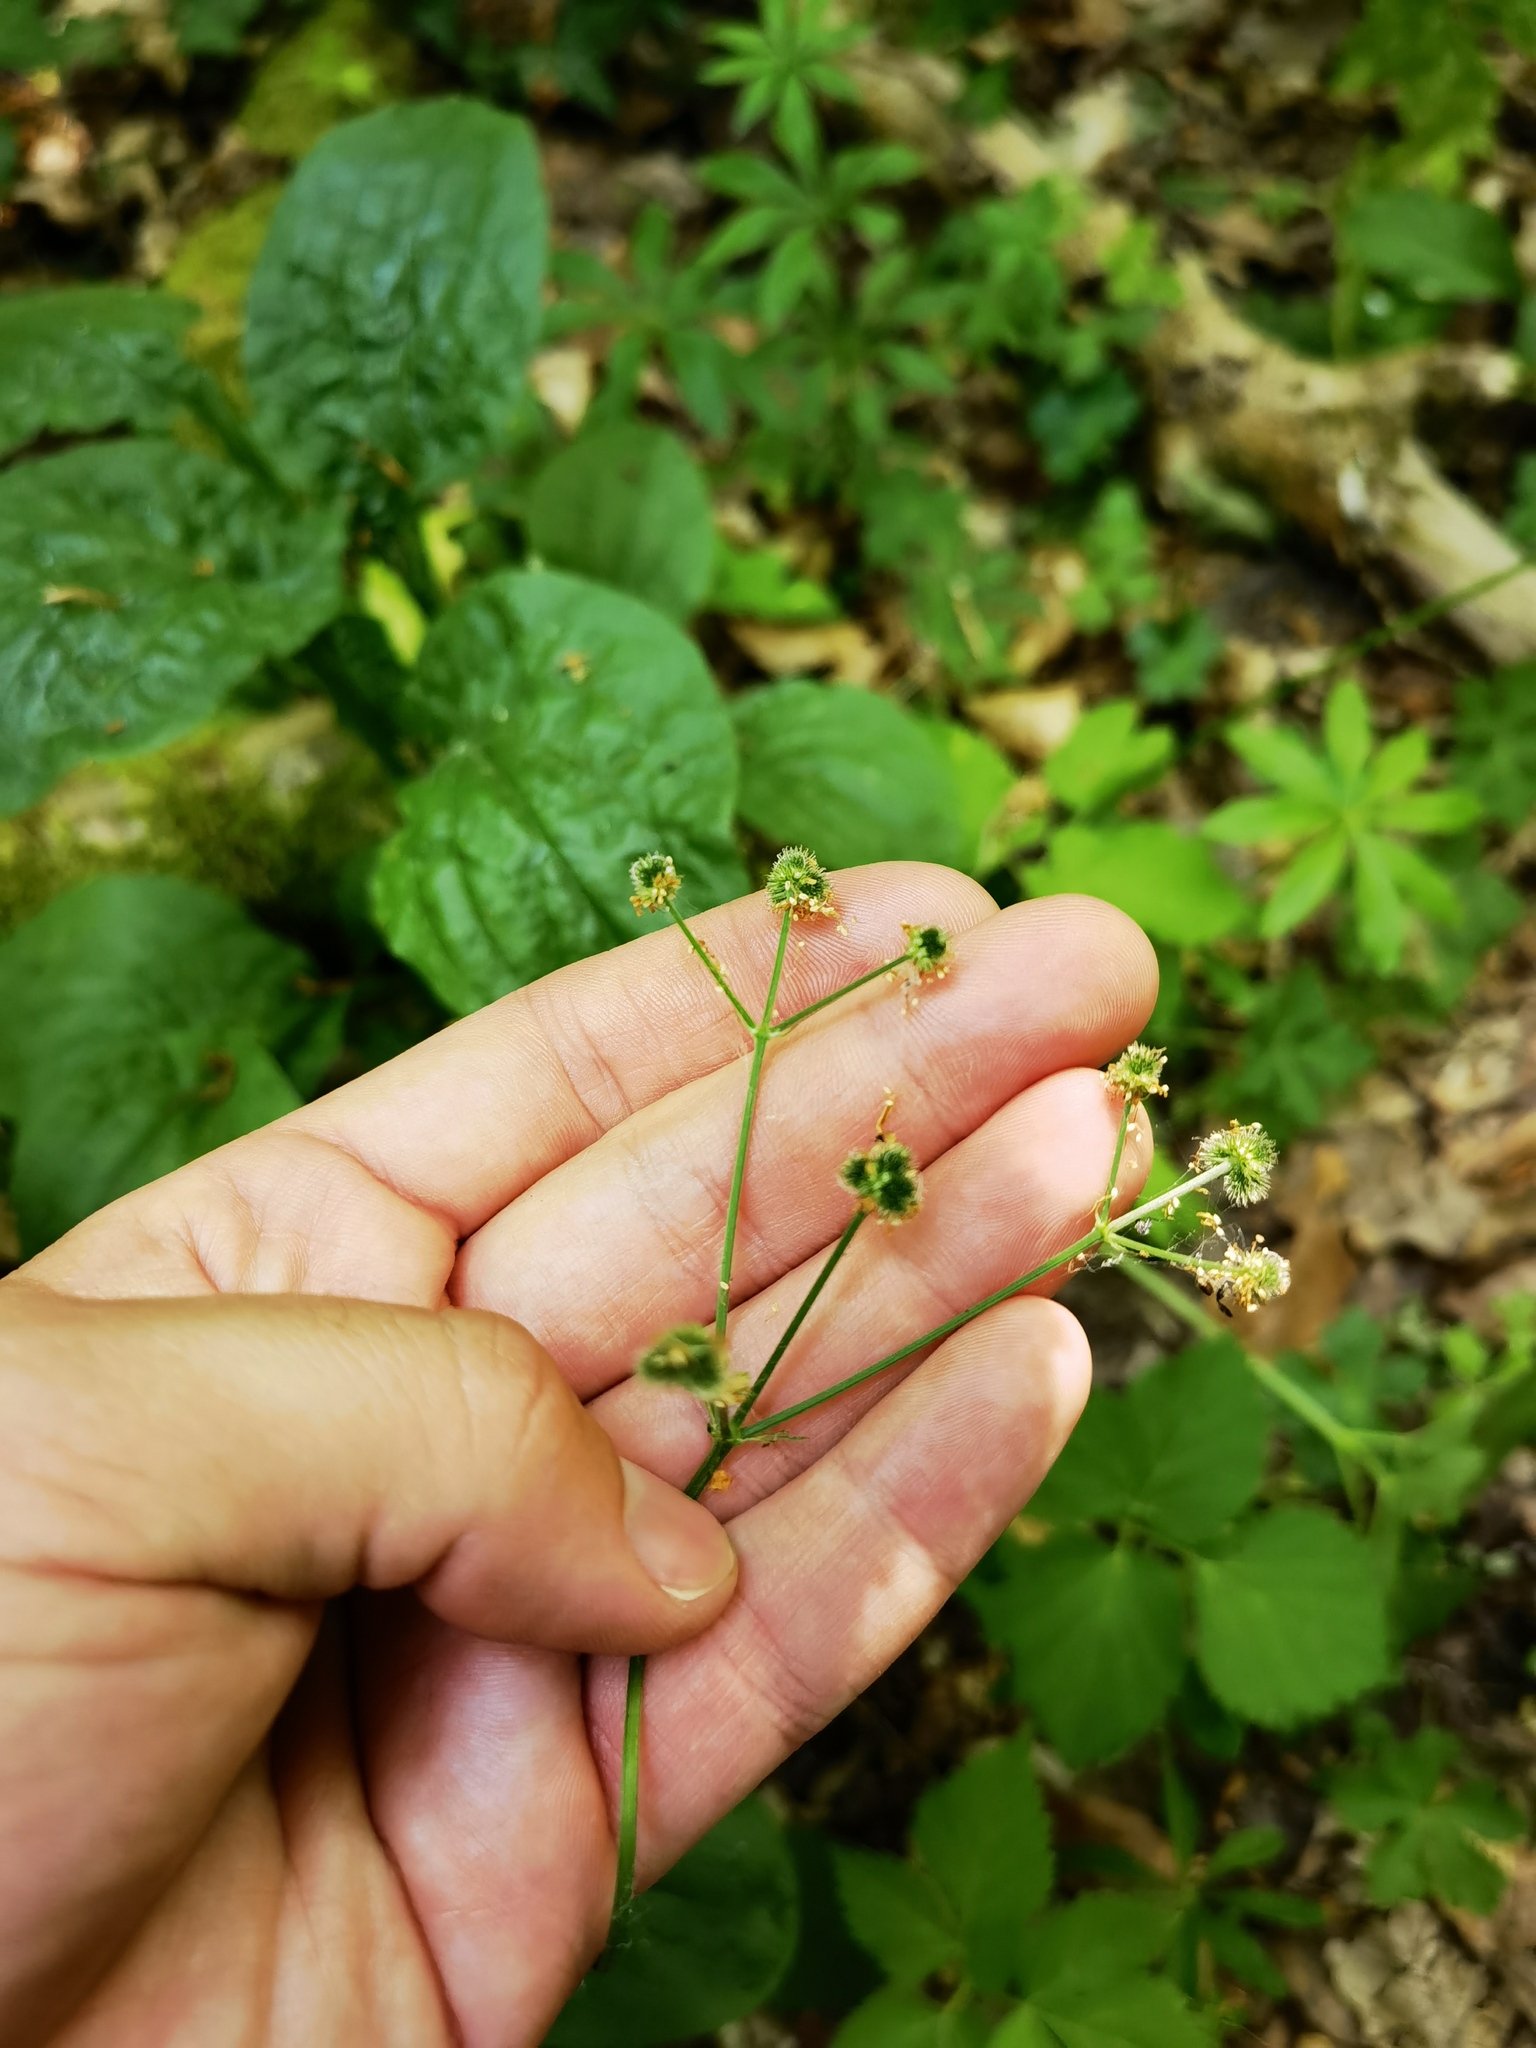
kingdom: Plantae
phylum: Tracheophyta
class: Magnoliopsida
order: Apiales
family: Apiaceae
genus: Sanicula
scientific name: Sanicula europaea
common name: Sanicle
